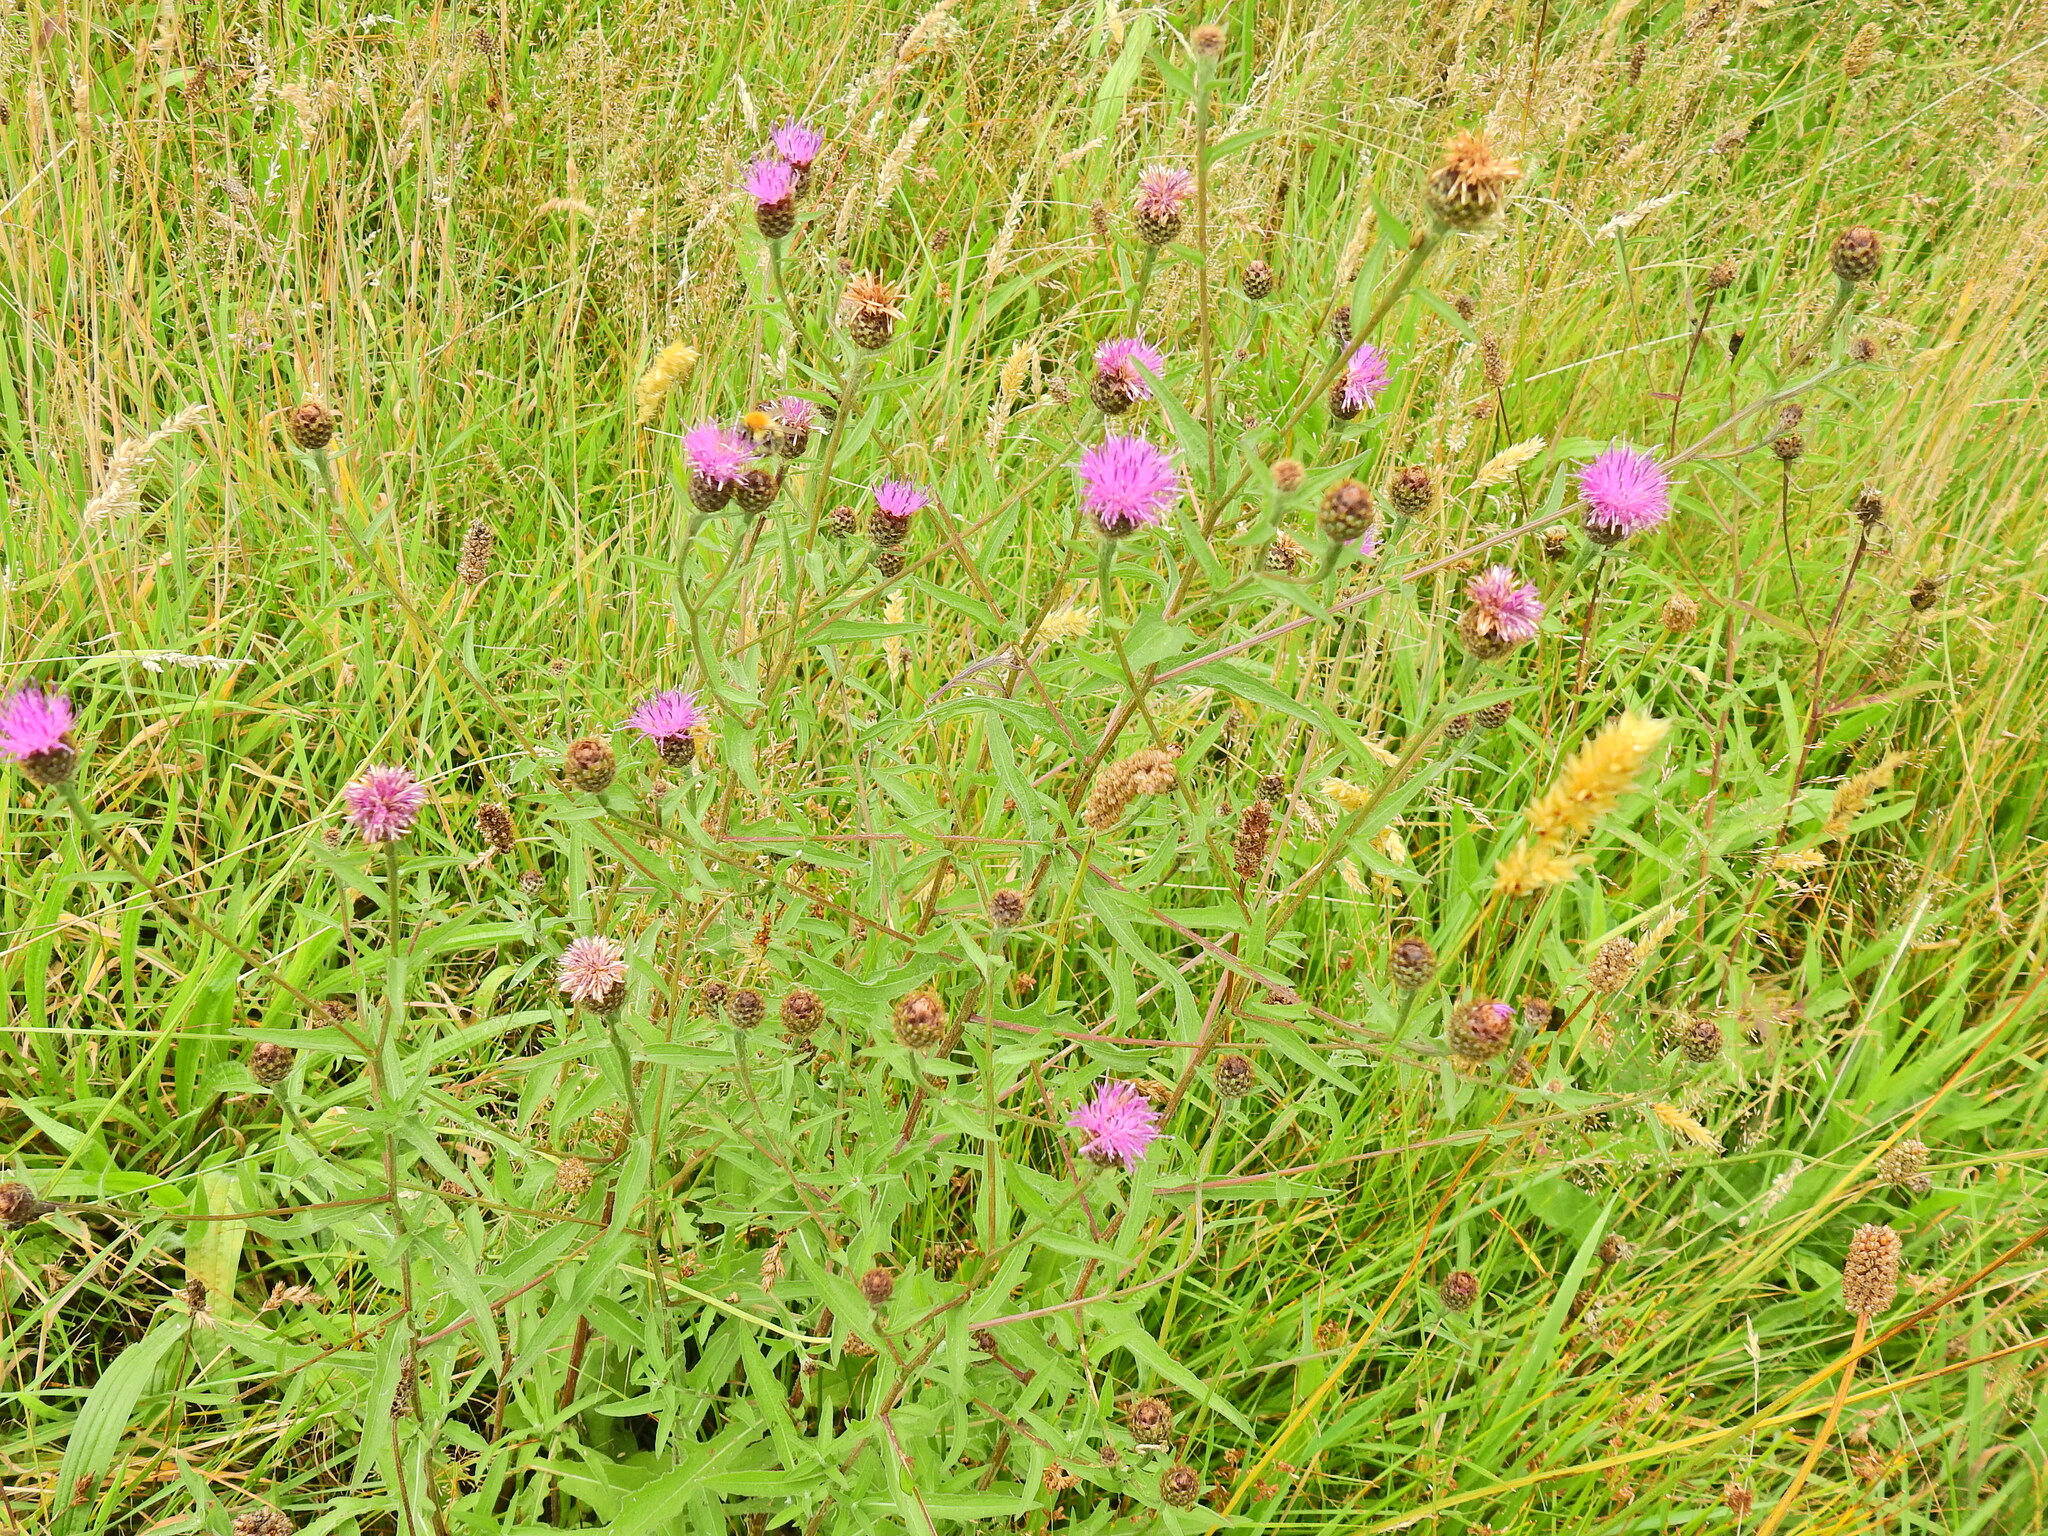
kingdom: Plantae
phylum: Tracheophyta
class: Magnoliopsida
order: Asterales
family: Asteraceae
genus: Centaurea
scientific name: Centaurea nigra
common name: Lesser knapweed
